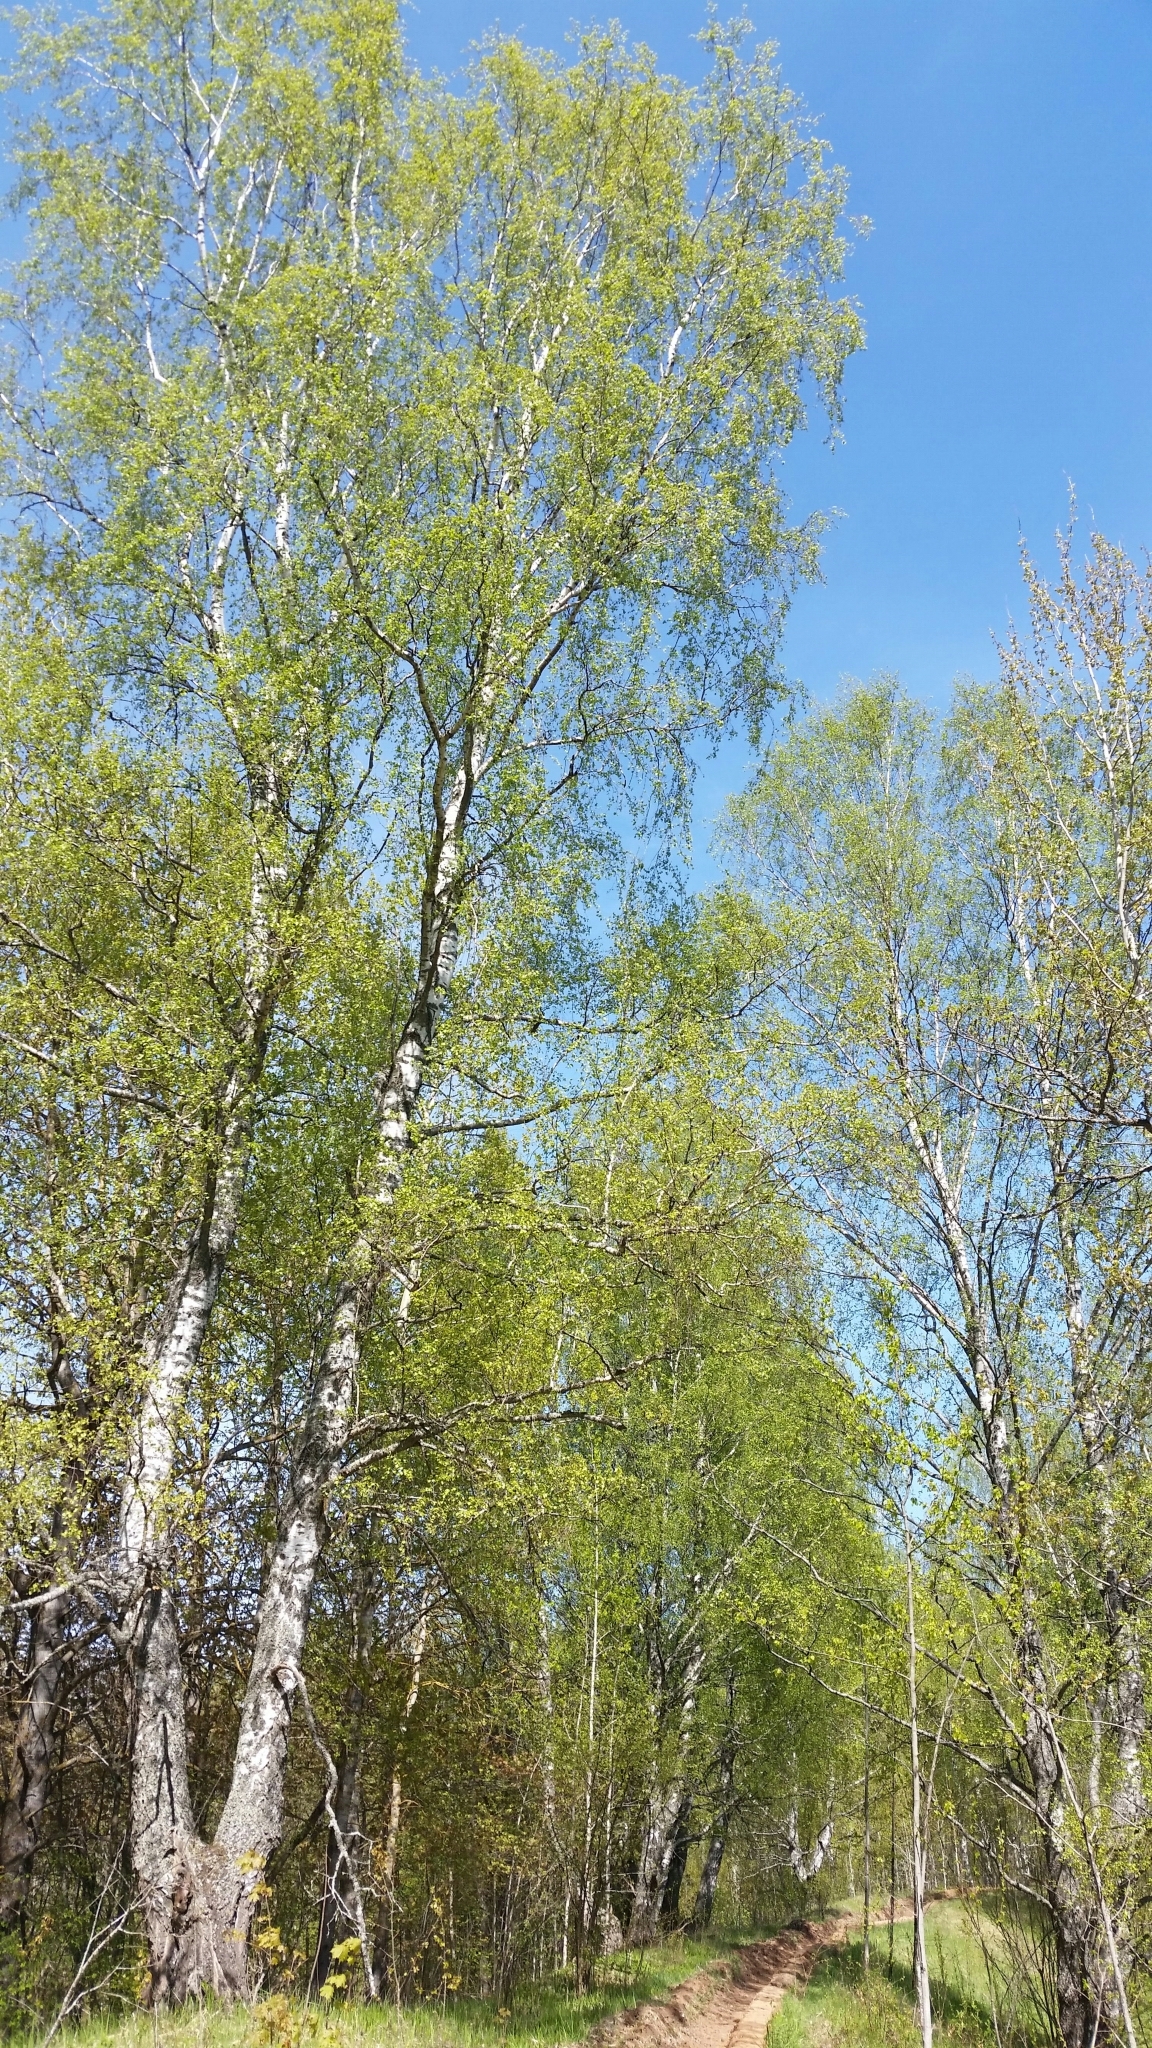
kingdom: Plantae
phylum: Tracheophyta
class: Magnoliopsida
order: Fagales
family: Betulaceae
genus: Betula
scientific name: Betula pendula
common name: Silver birch
